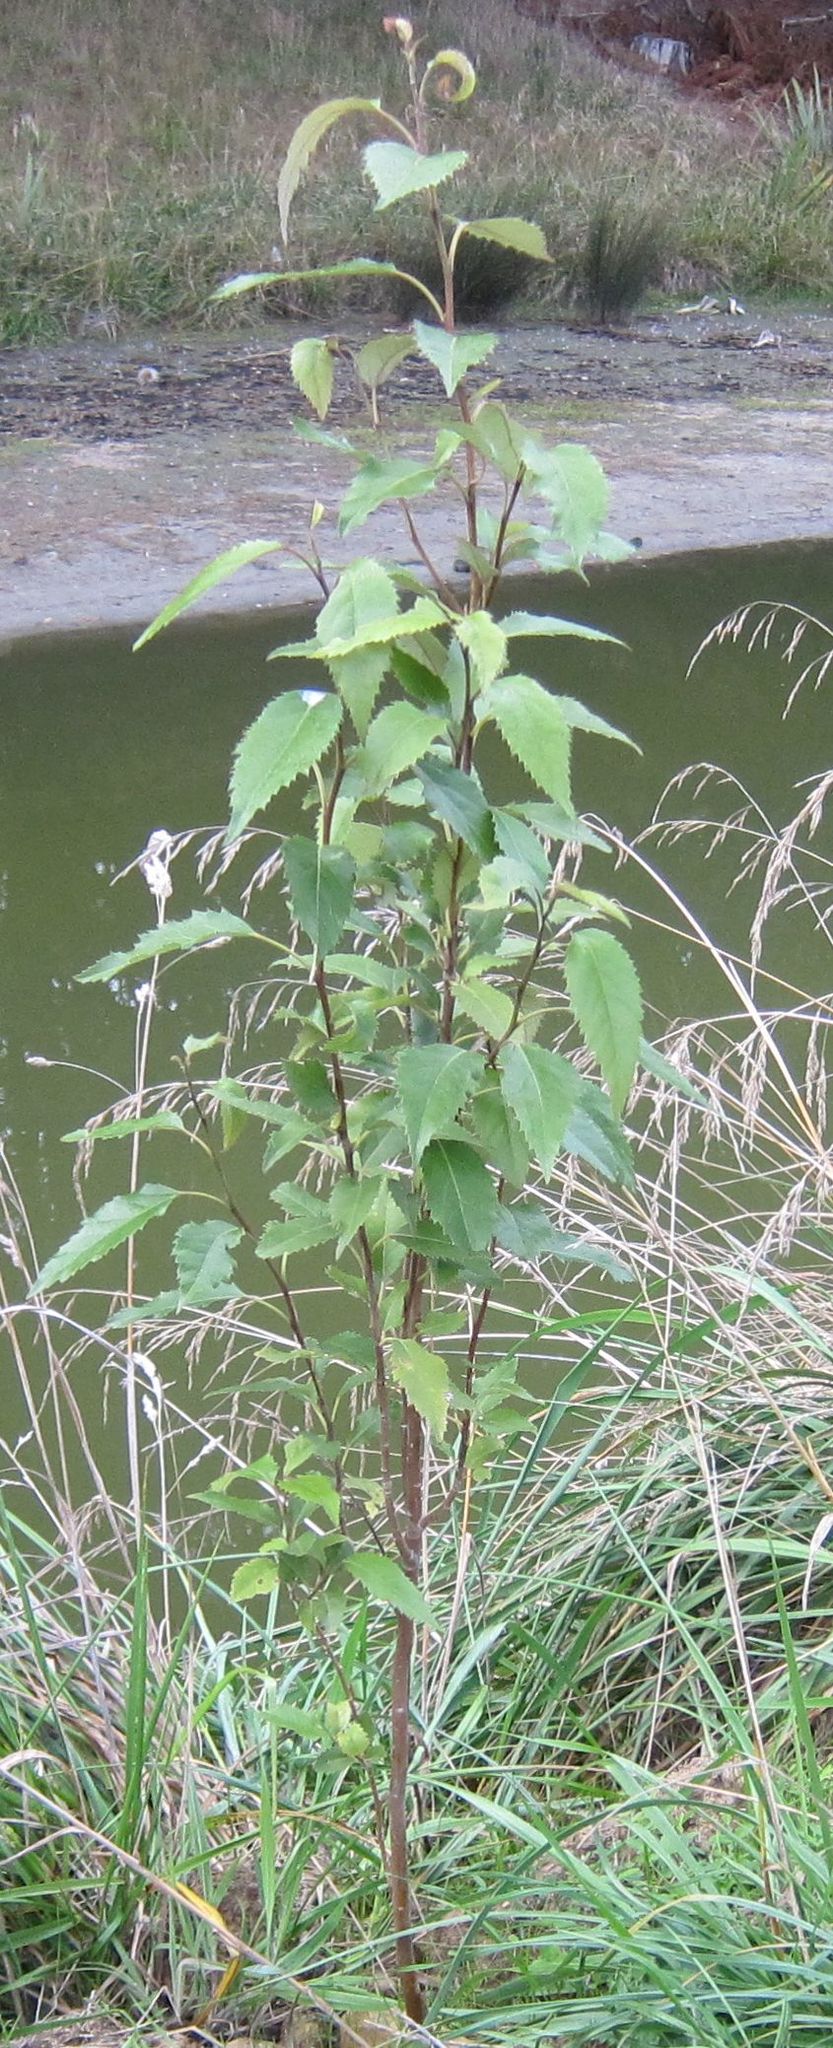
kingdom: Plantae
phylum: Tracheophyta
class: Magnoliopsida
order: Malvales
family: Malvaceae
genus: Hoheria
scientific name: Hoheria sexstylosa
